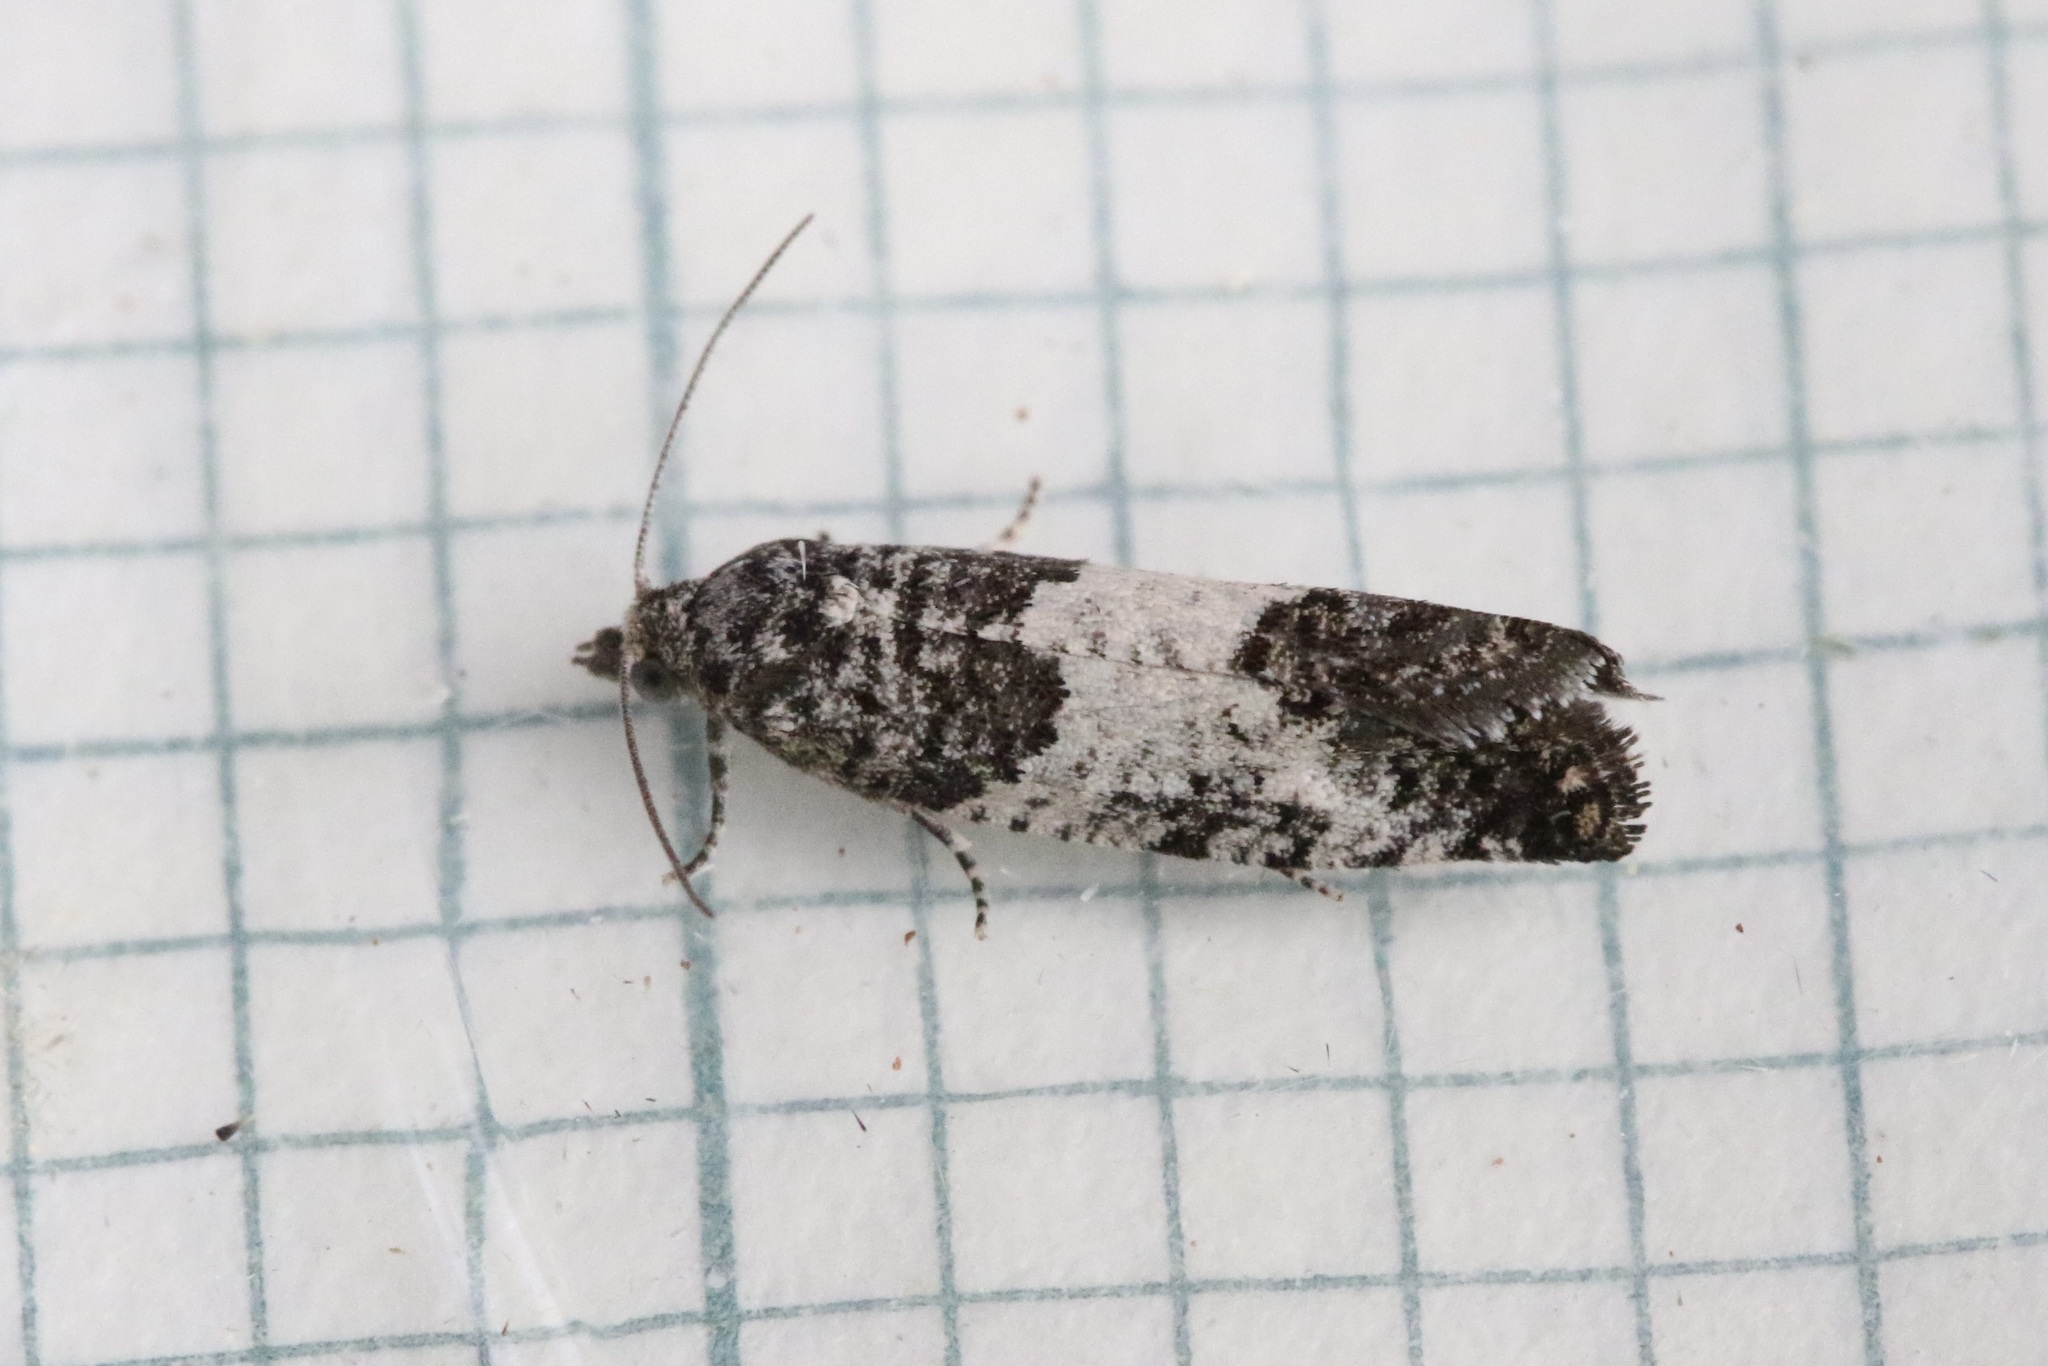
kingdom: Animalia
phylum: Arthropoda
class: Insecta
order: Lepidoptera
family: Tortricidae
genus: Spilonota
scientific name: Spilonota laricana
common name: Larch shoot tortricid moth
